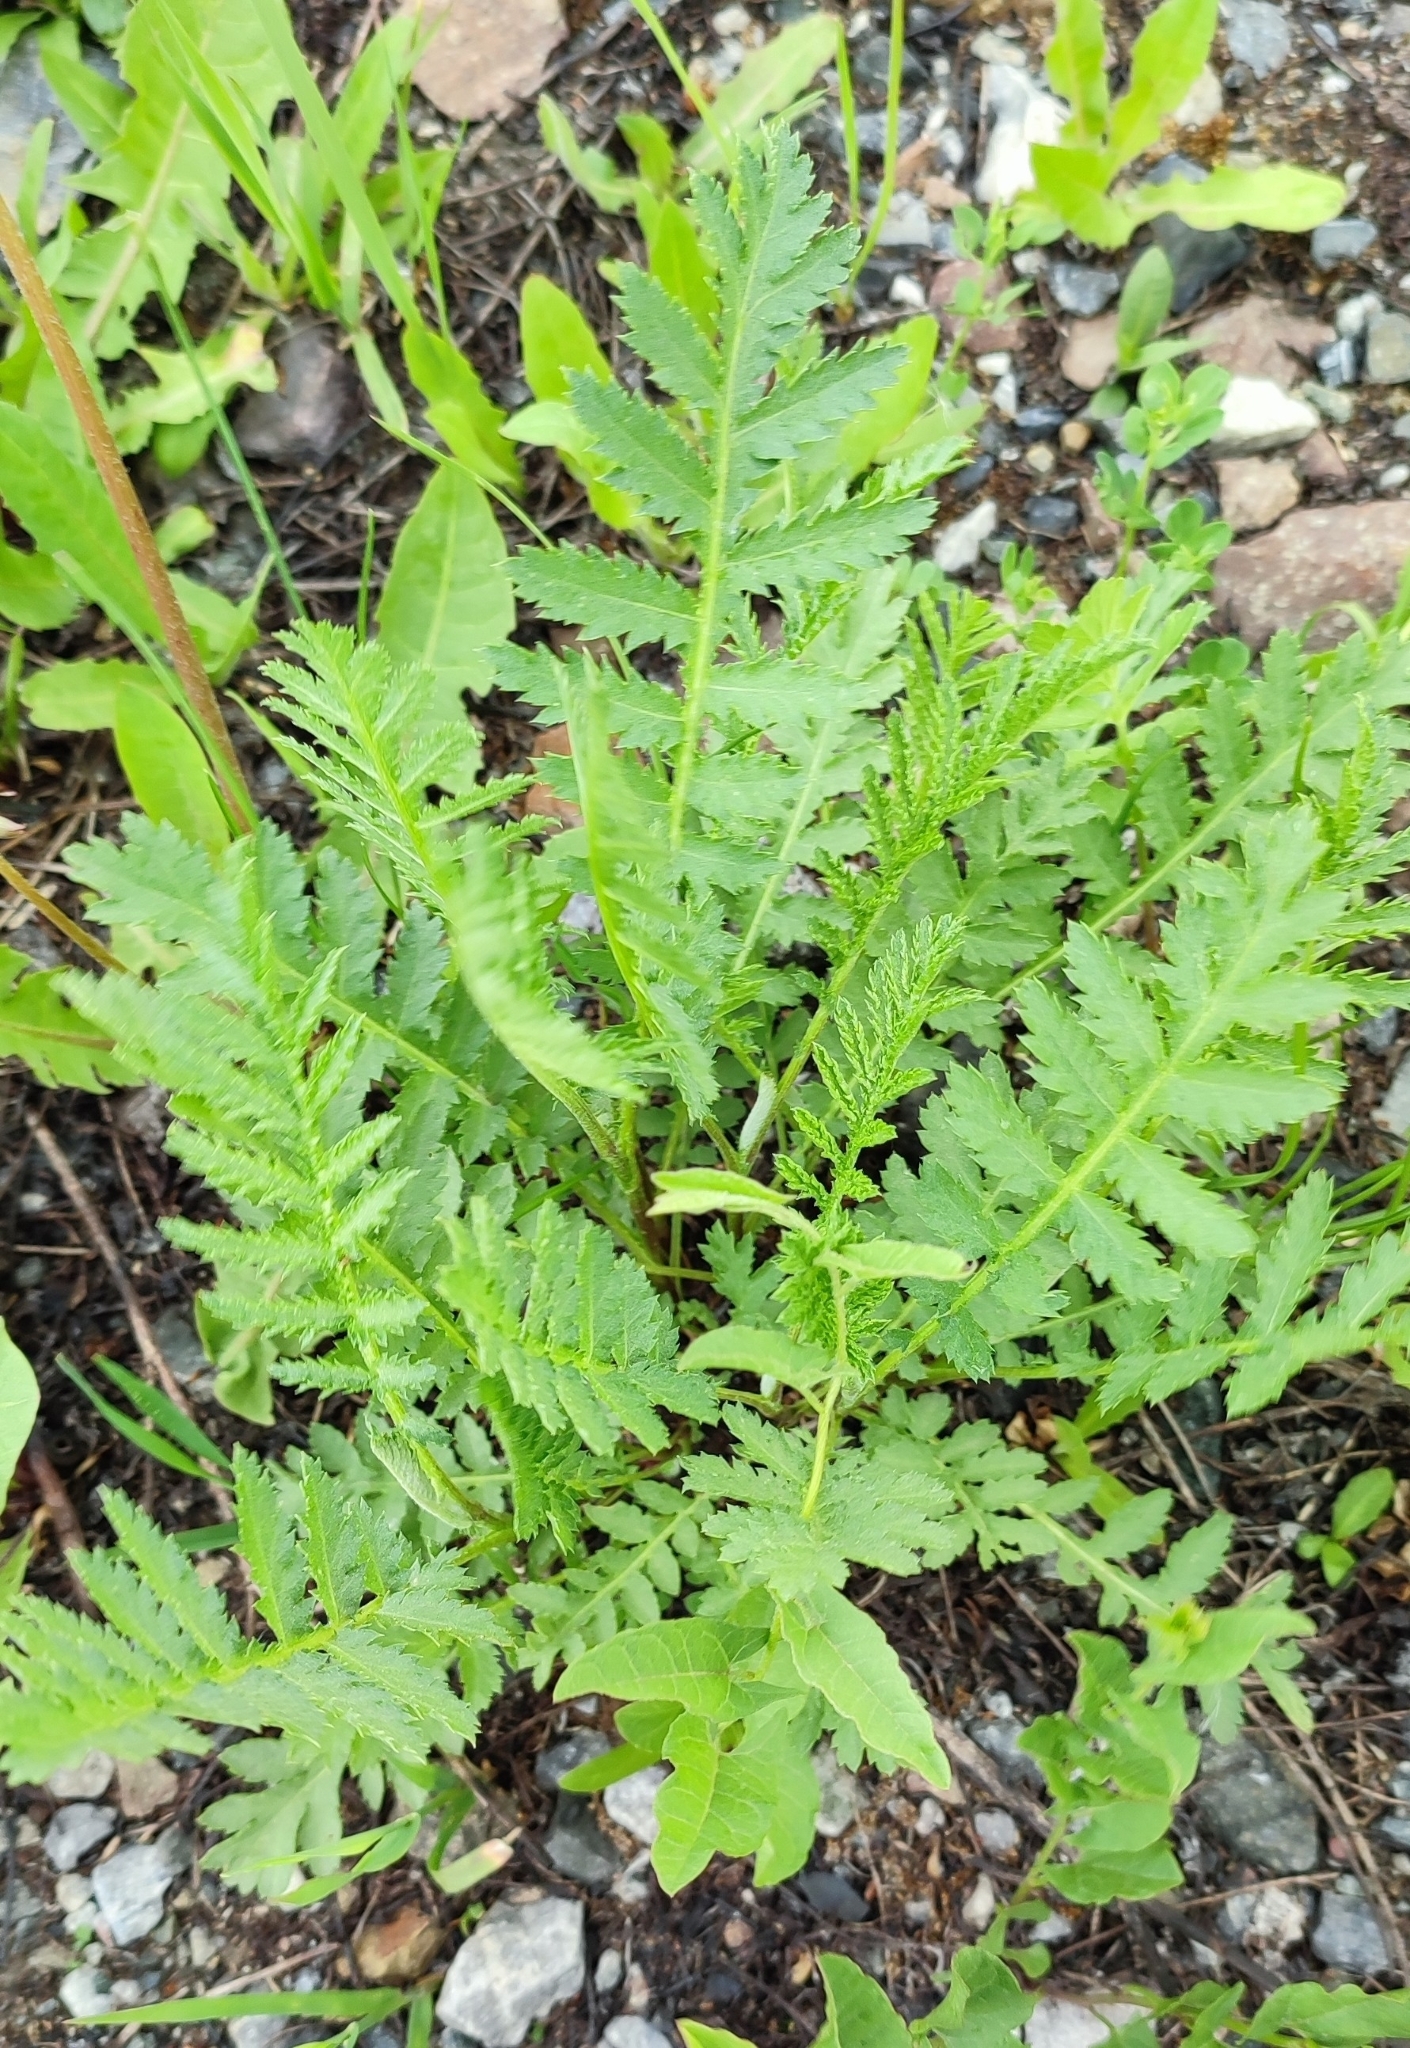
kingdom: Plantae
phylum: Tracheophyta
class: Magnoliopsida
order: Asterales
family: Asteraceae
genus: Tanacetum
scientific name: Tanacetum vulgare
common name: Common tansy
